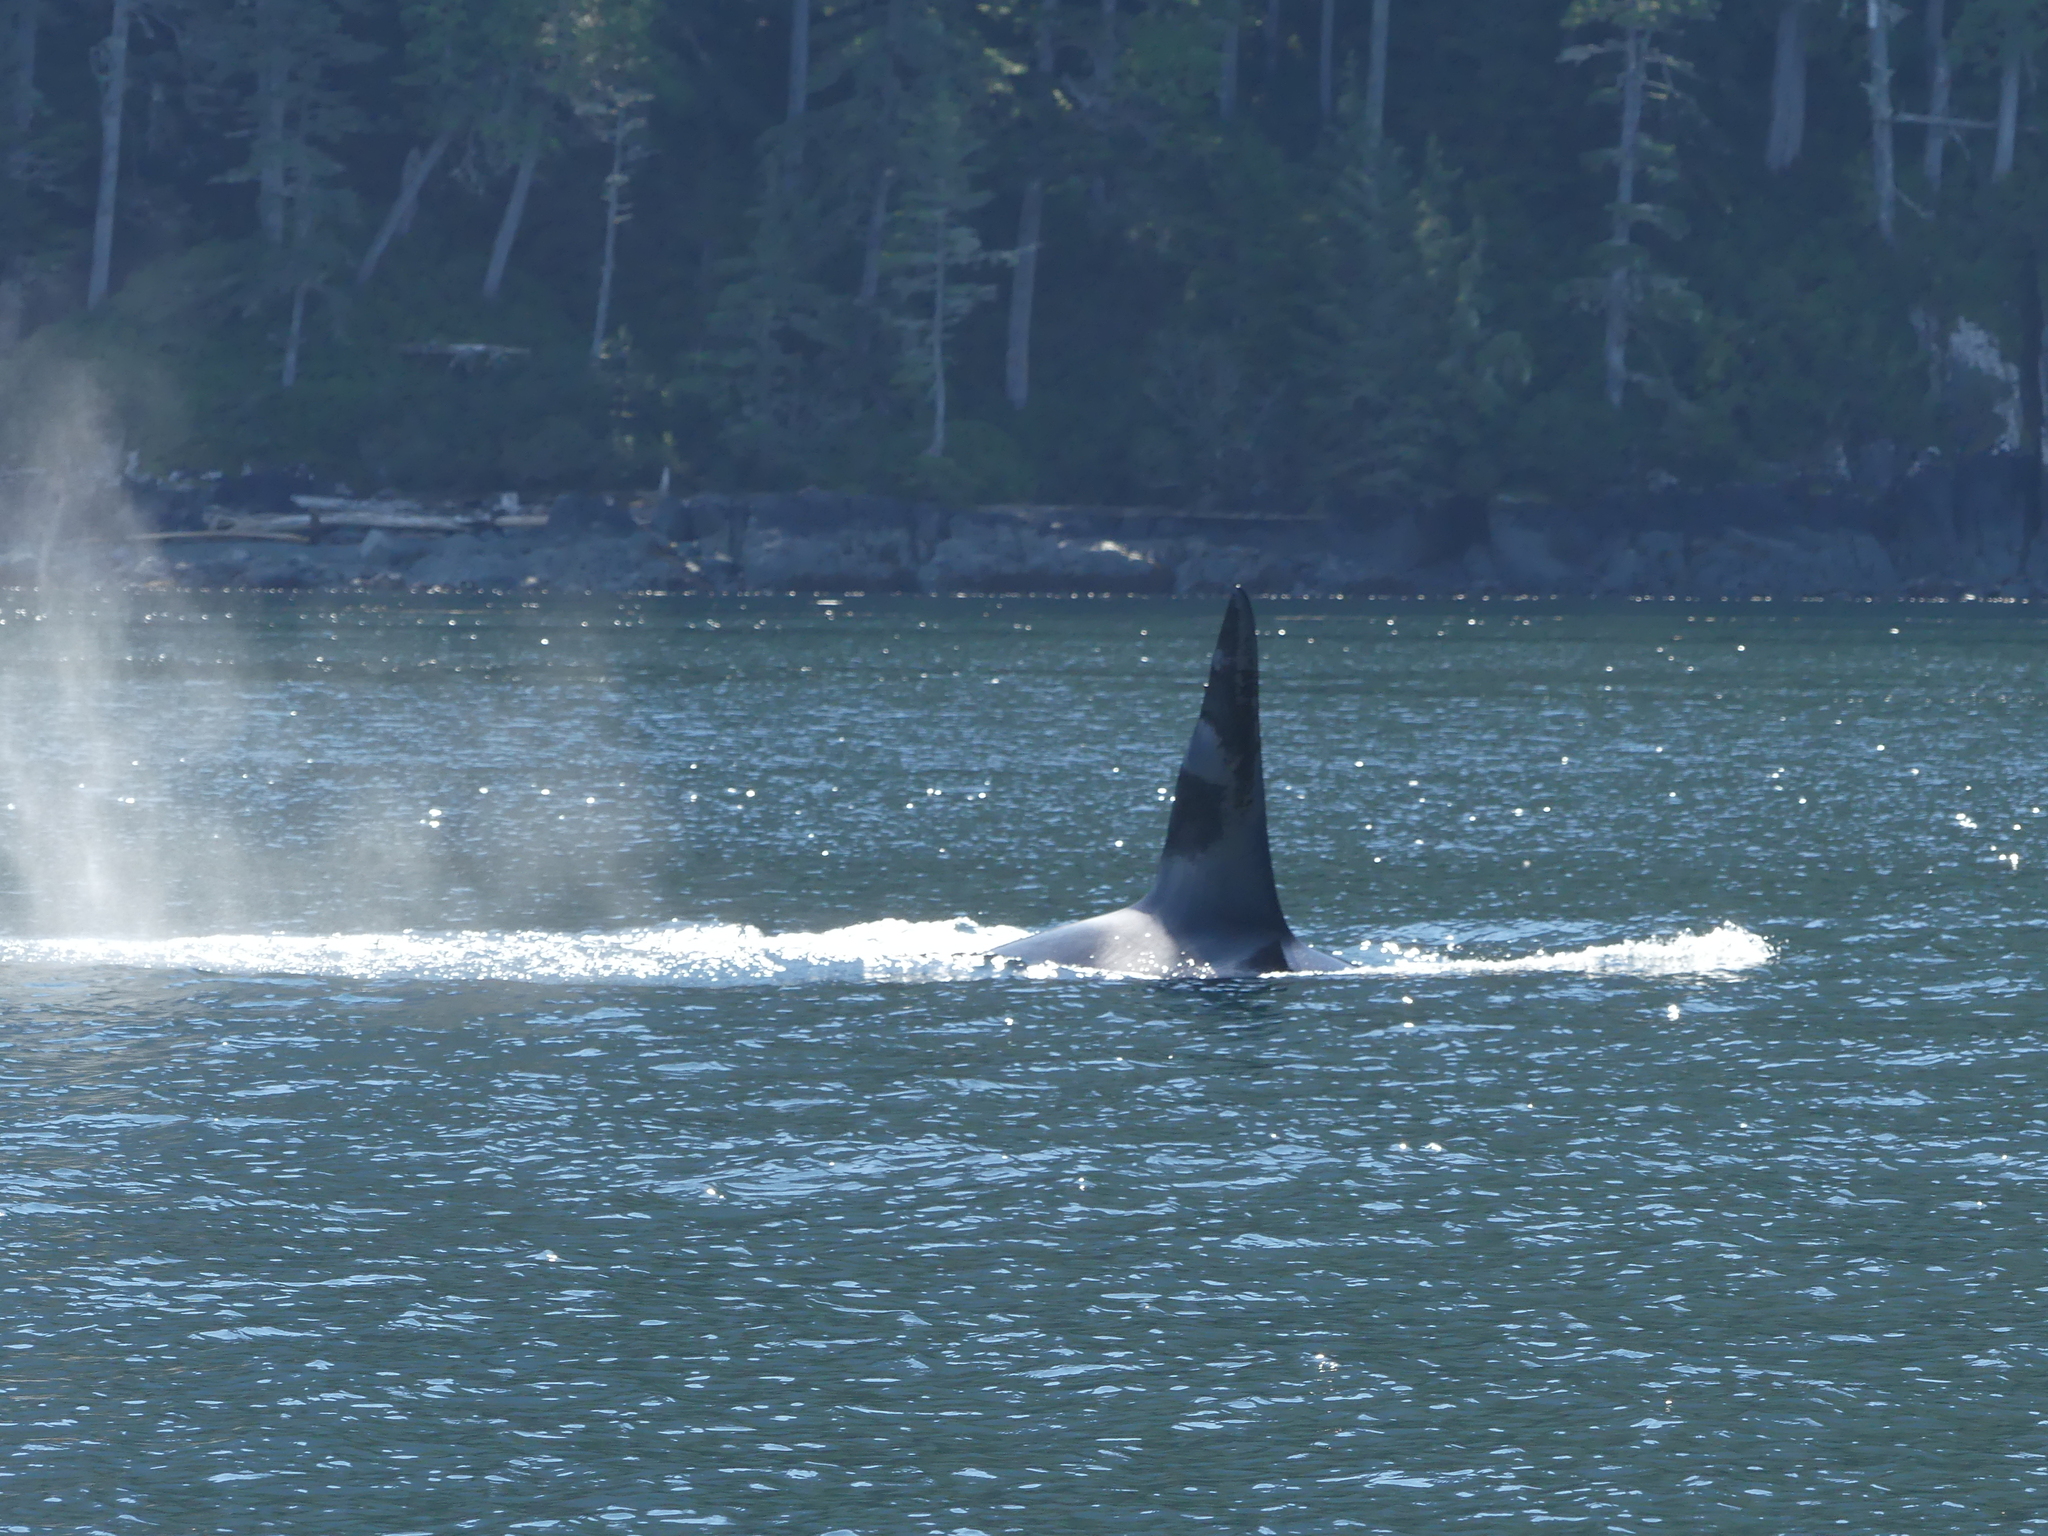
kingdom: Animalia
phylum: Chordata
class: Mammalia
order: Cetacea
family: Delphinidae
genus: Orcinus
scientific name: Orcinus orca
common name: Killer whale
